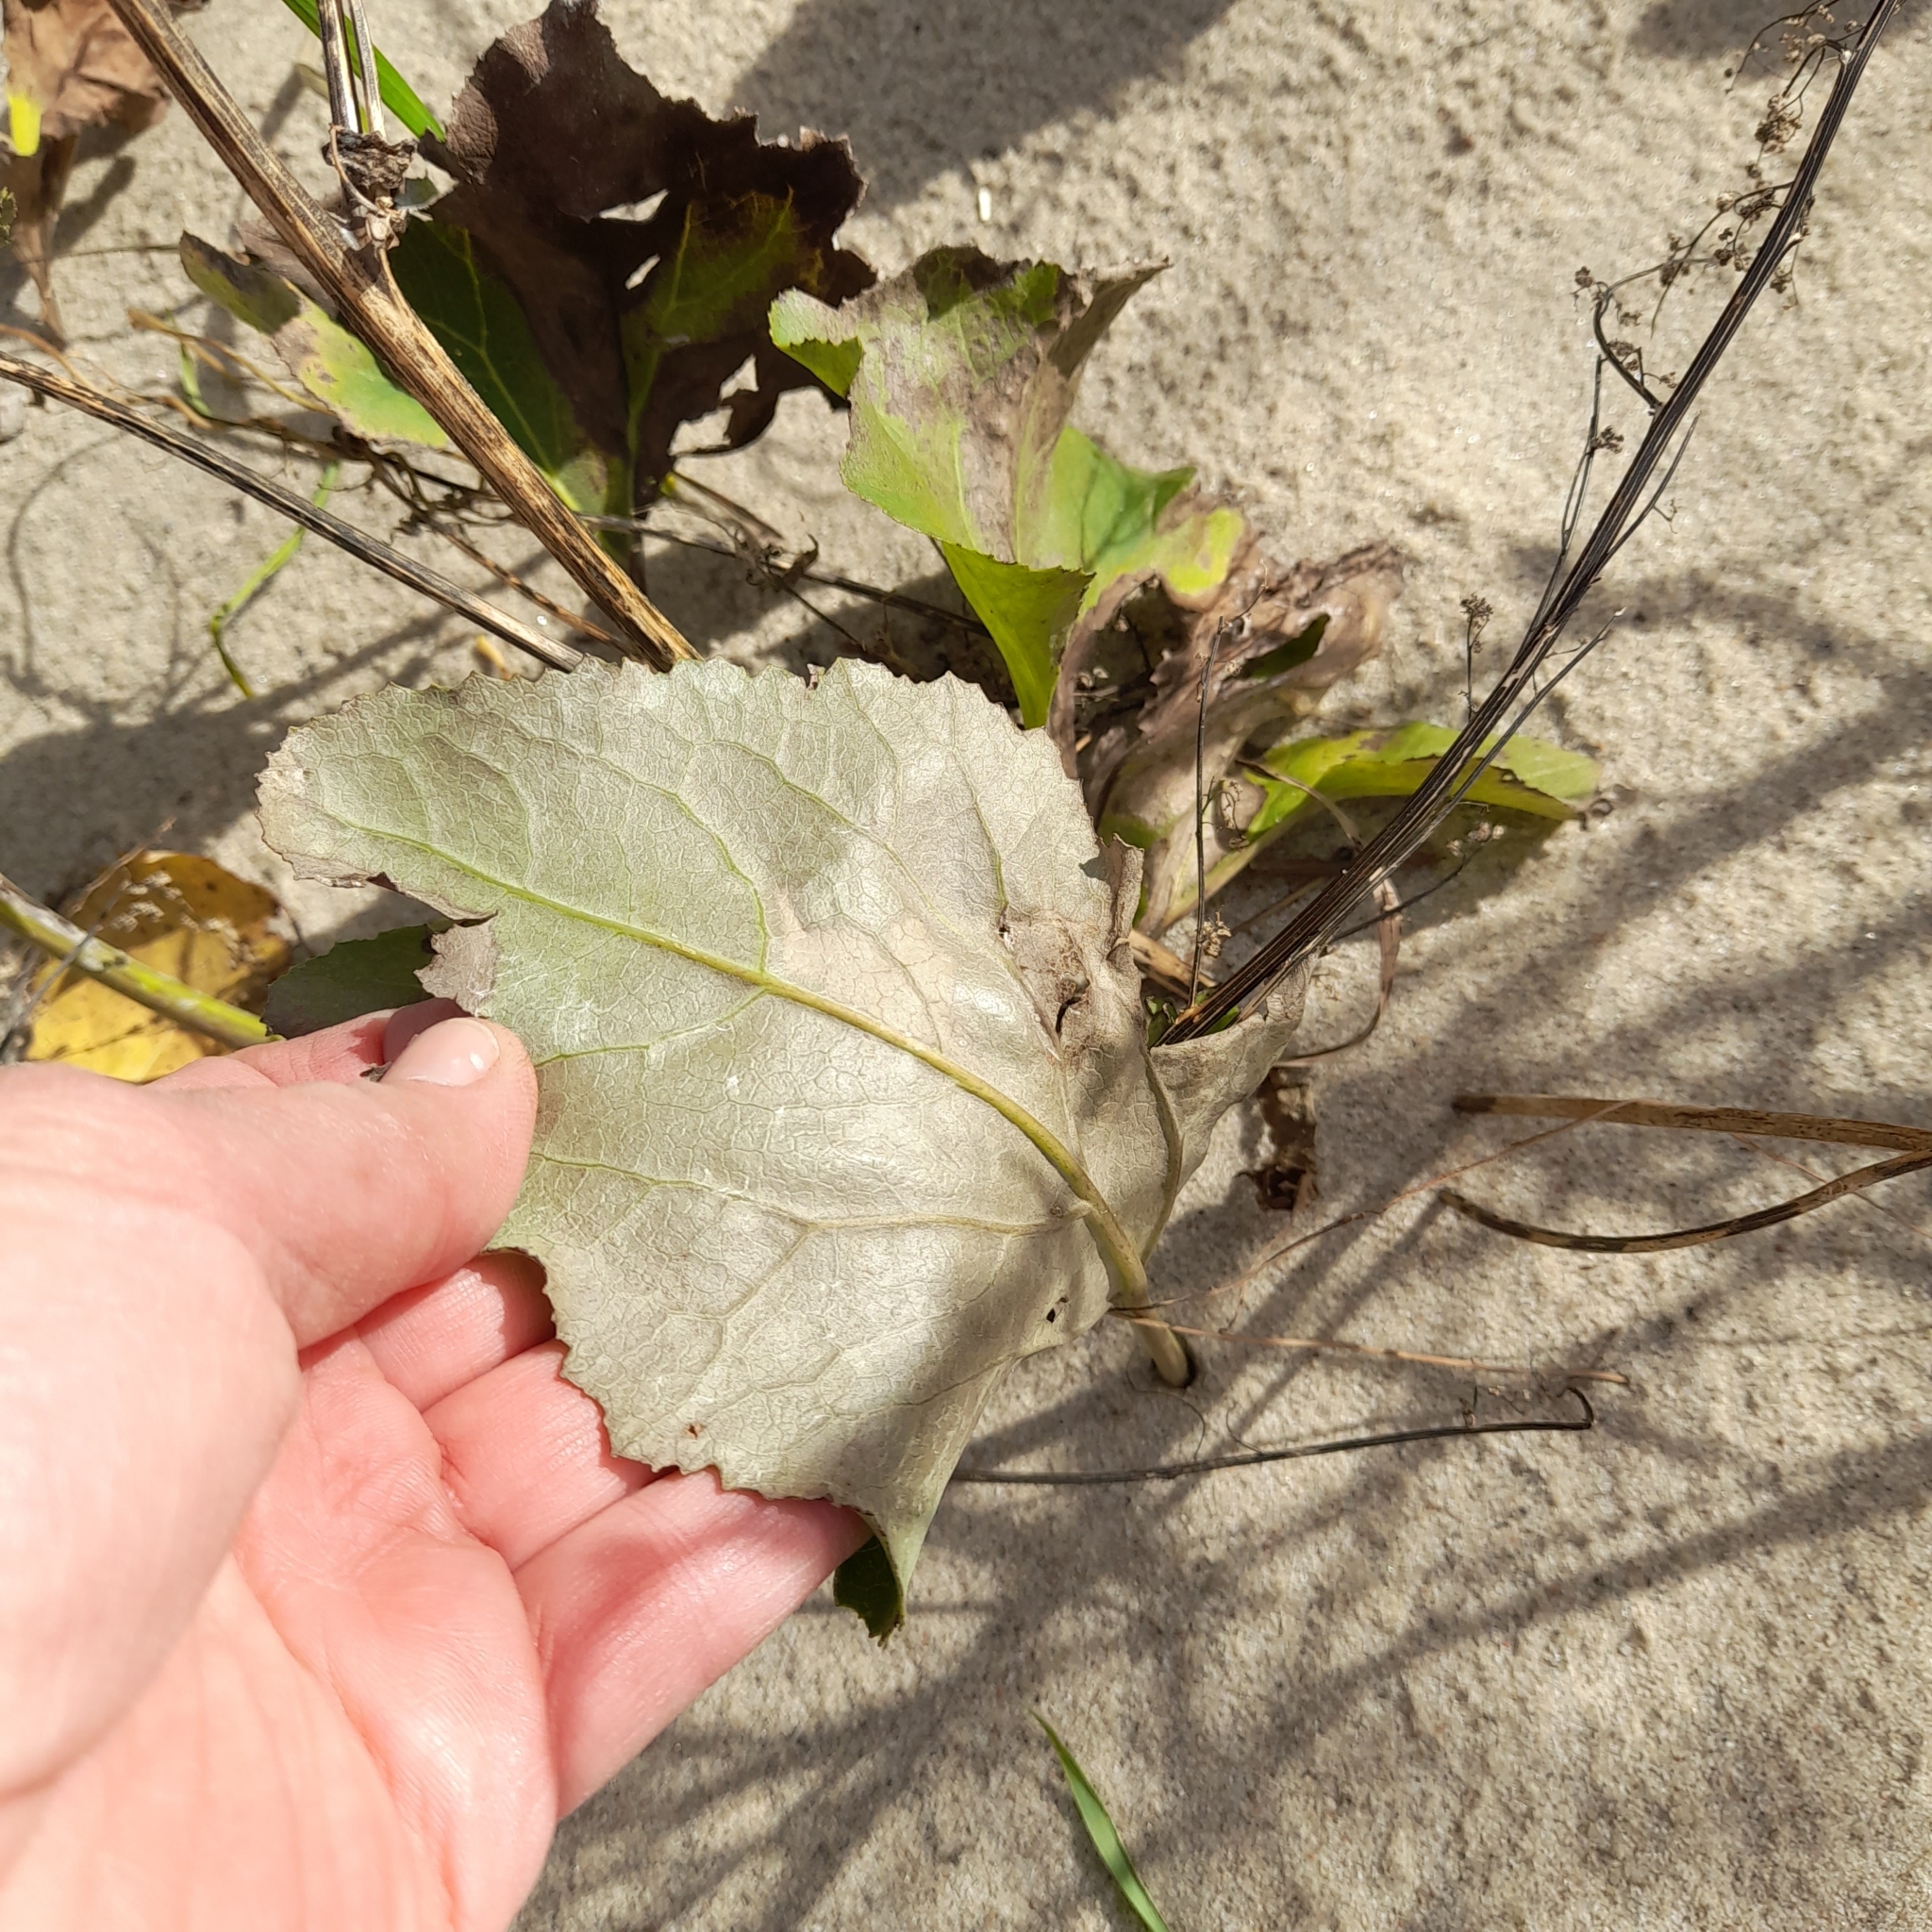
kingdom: Plantae
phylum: Tracheophyta
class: Magnoliopsida
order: Asterales
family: Asteraceae
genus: Petasites
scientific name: Petasites spurius
